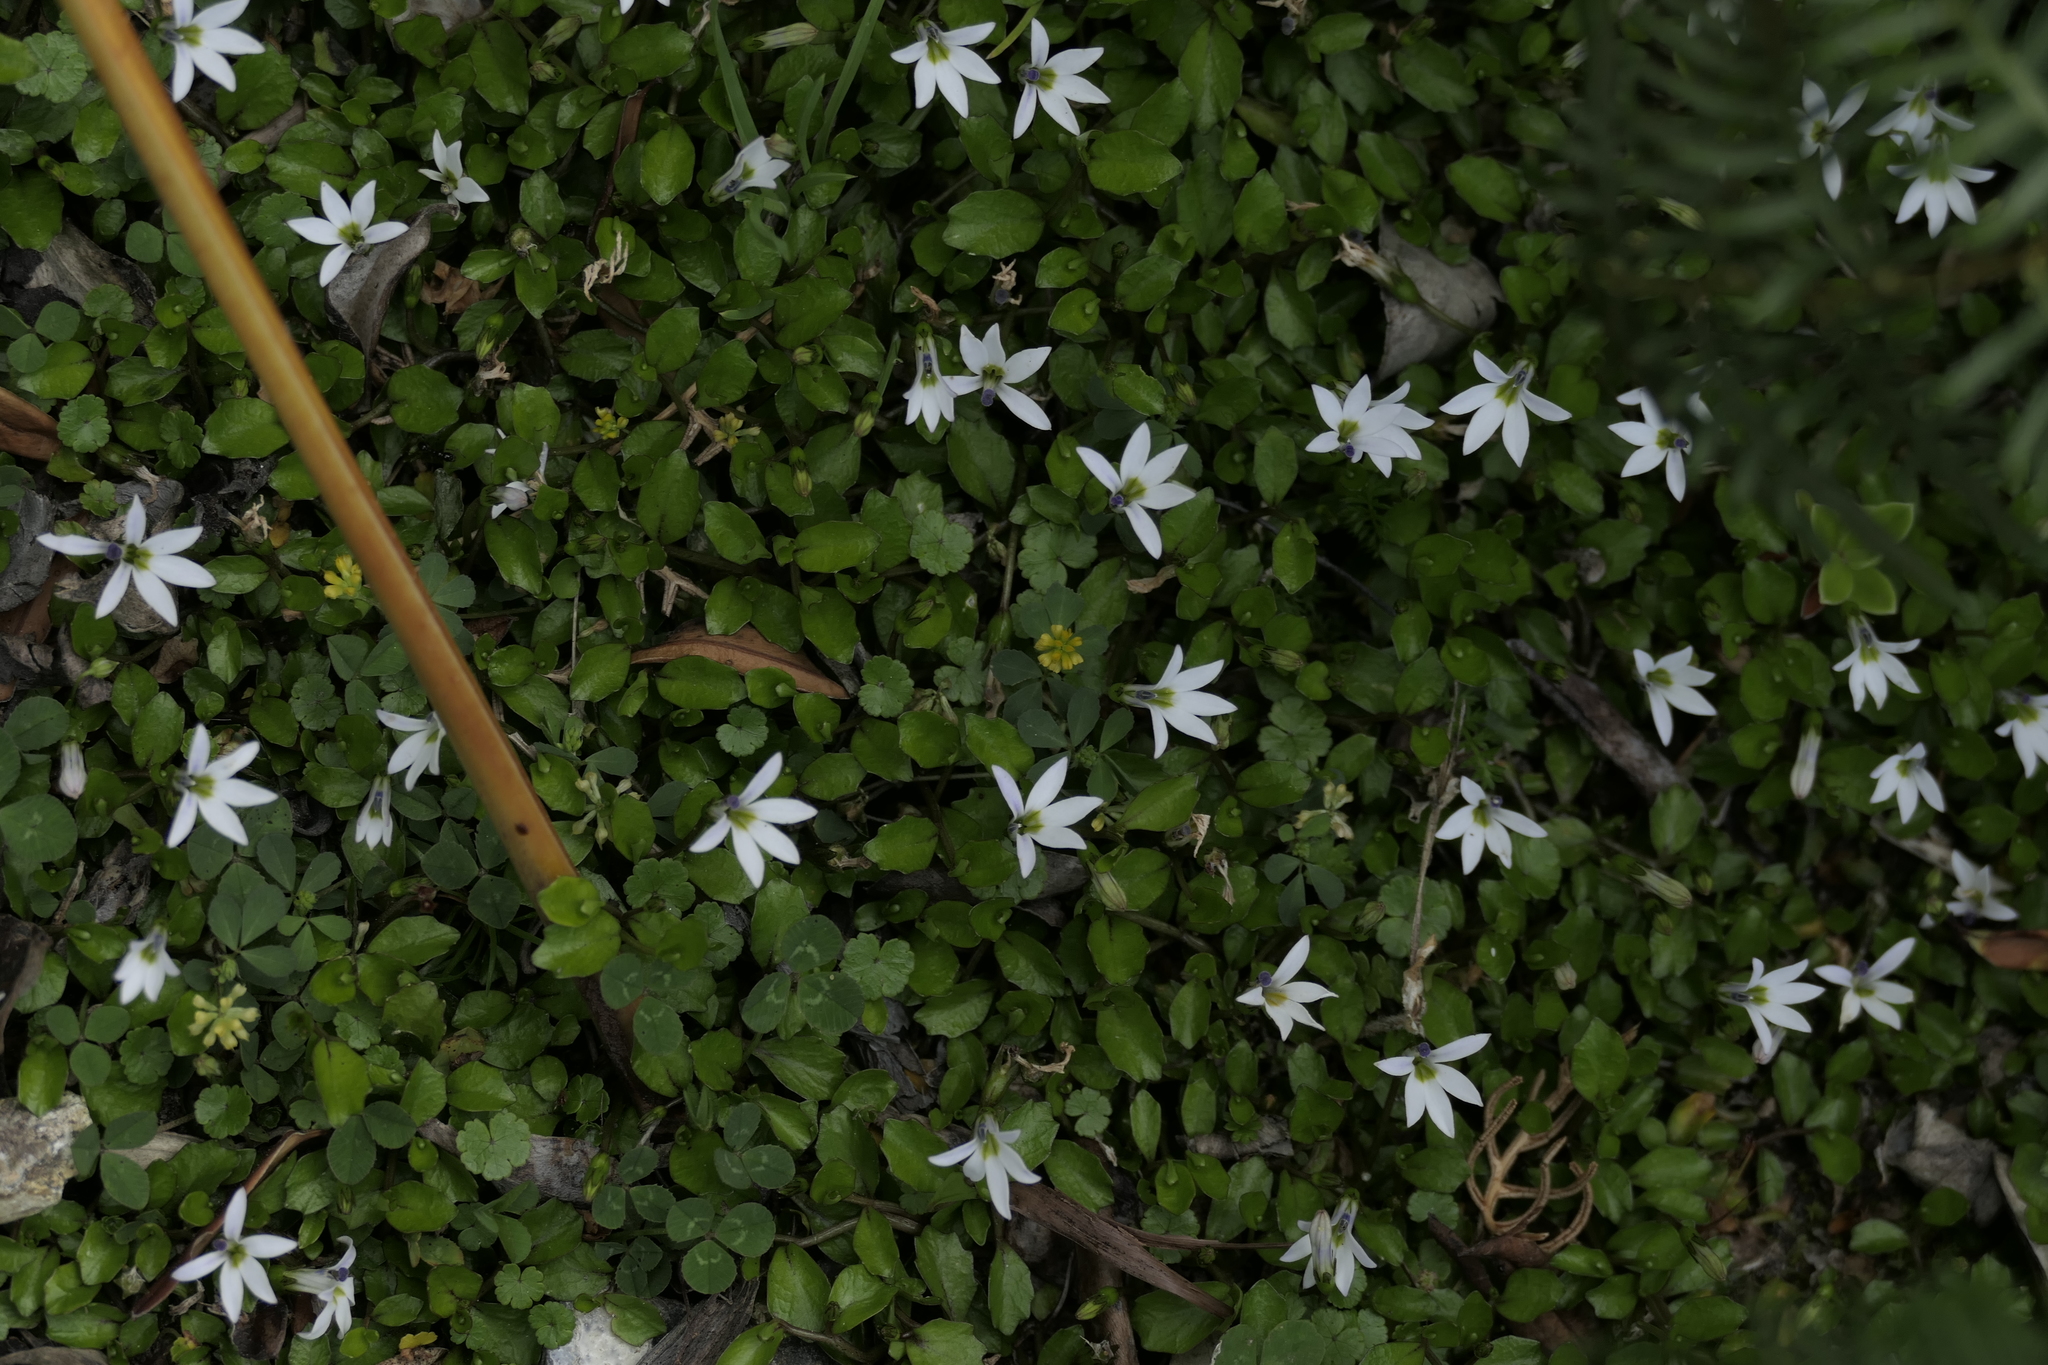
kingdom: Plantae
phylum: Tracheophyta
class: Magnoliopsida
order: Asterales
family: Campanulaceae
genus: Lobelia
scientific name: Lobelia angulata
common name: Lawn lobelia
